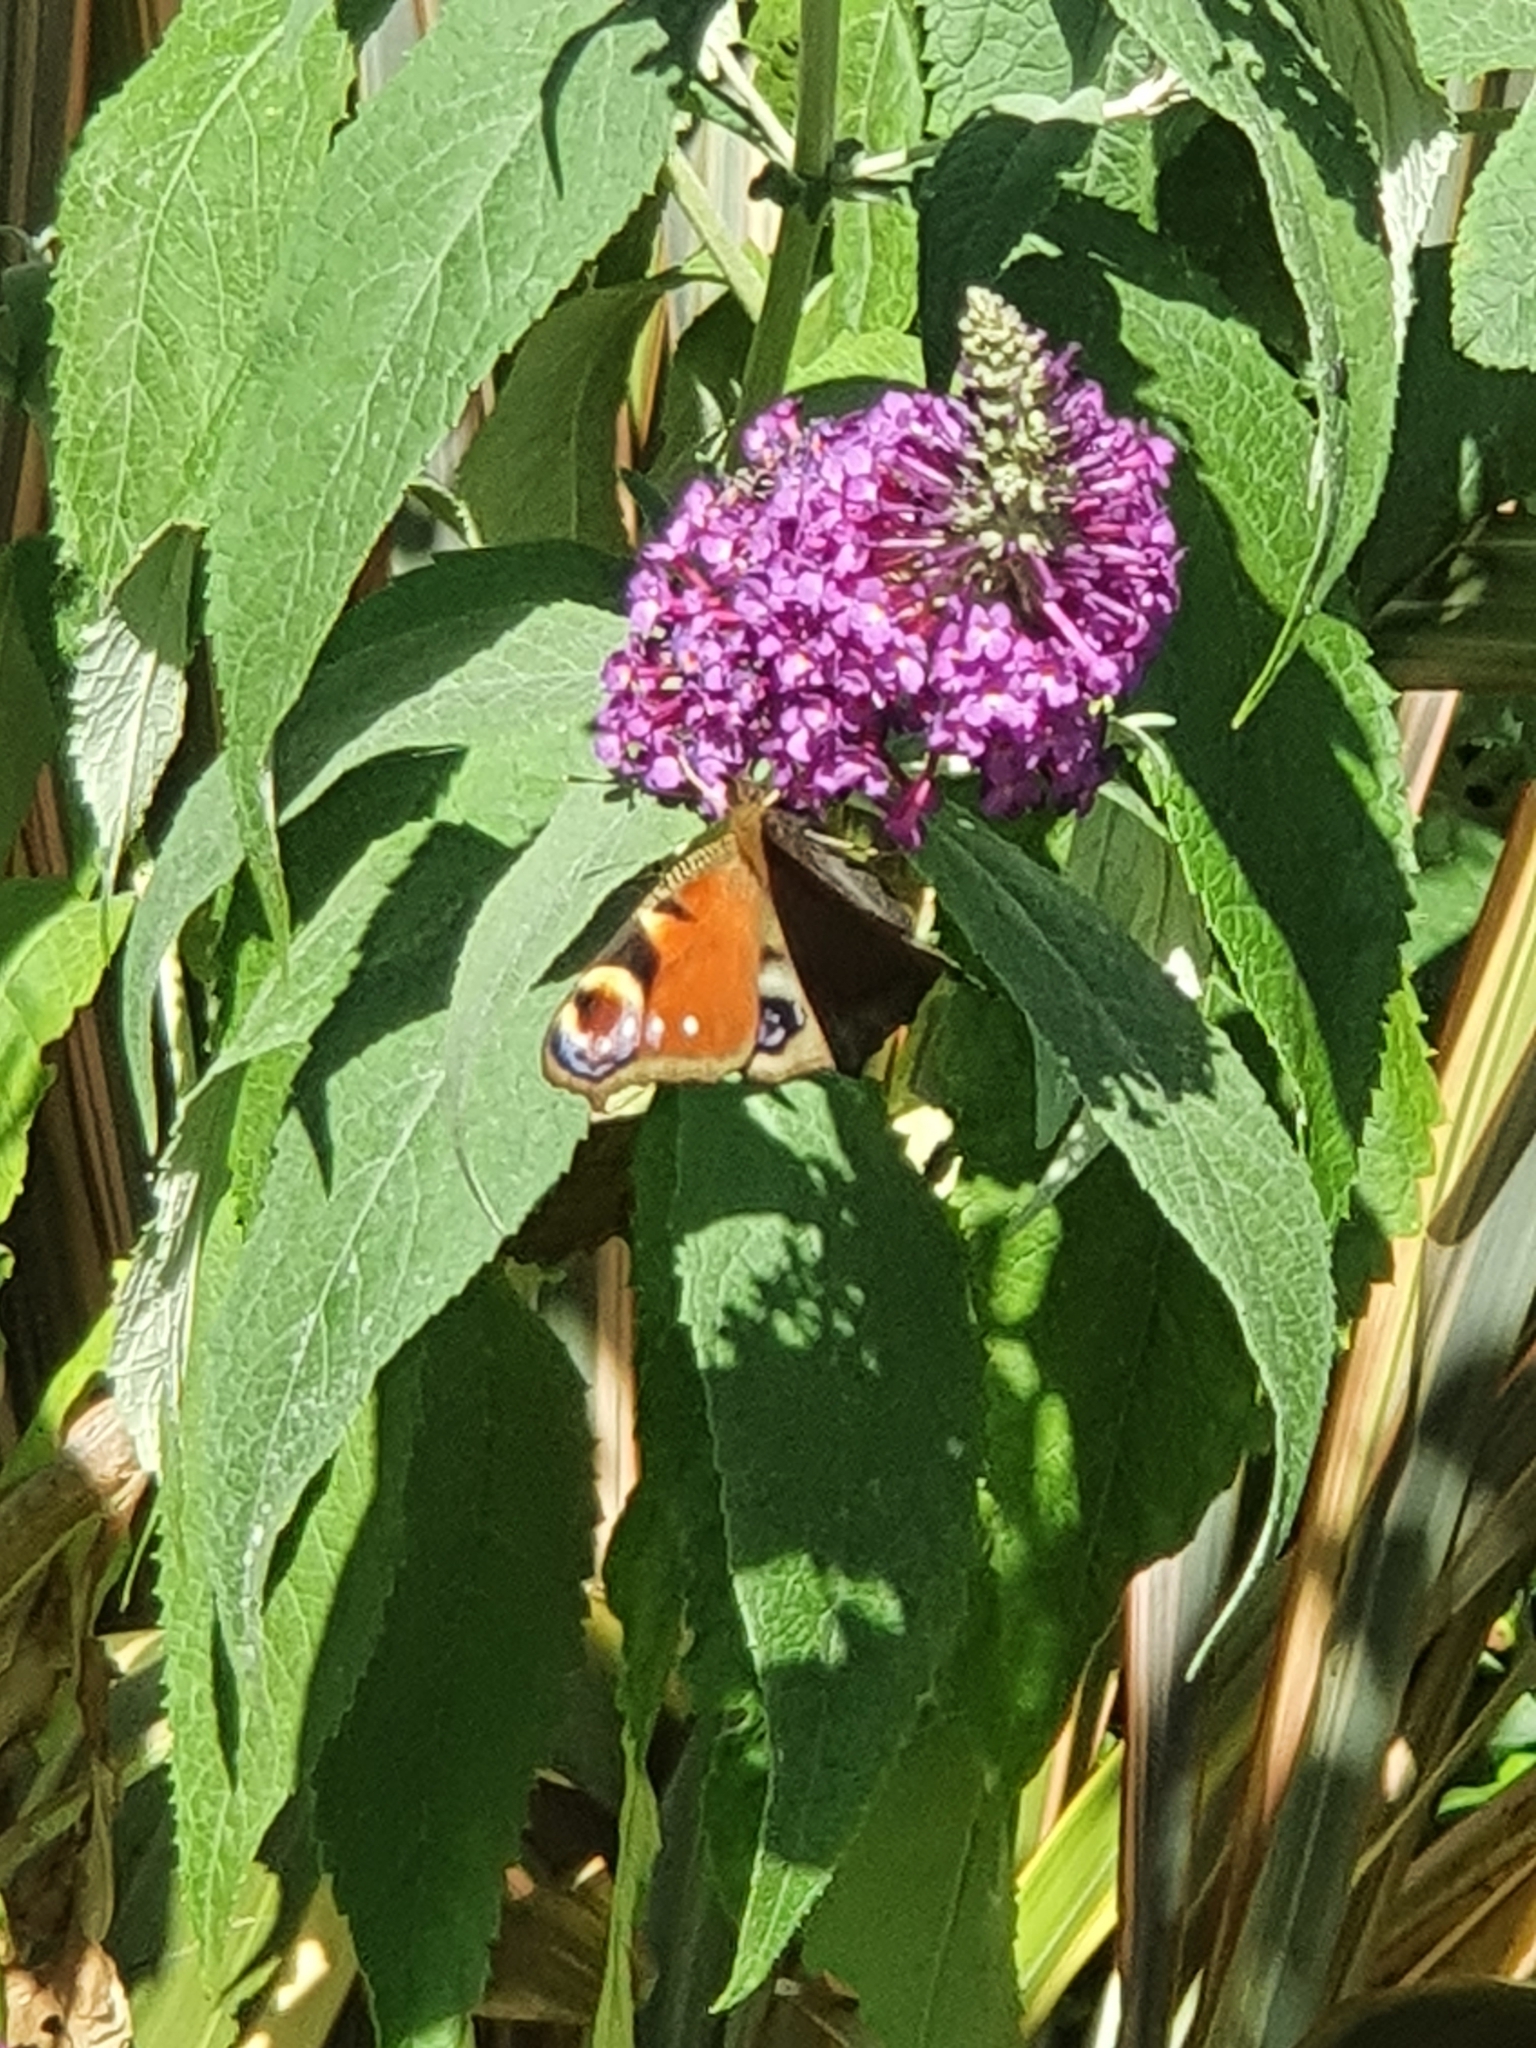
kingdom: Animalia
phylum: Arthropoda
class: Insecta
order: Lepidoptera
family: Nymphalidae
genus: Aglais
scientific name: Aglais io
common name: Peacock
